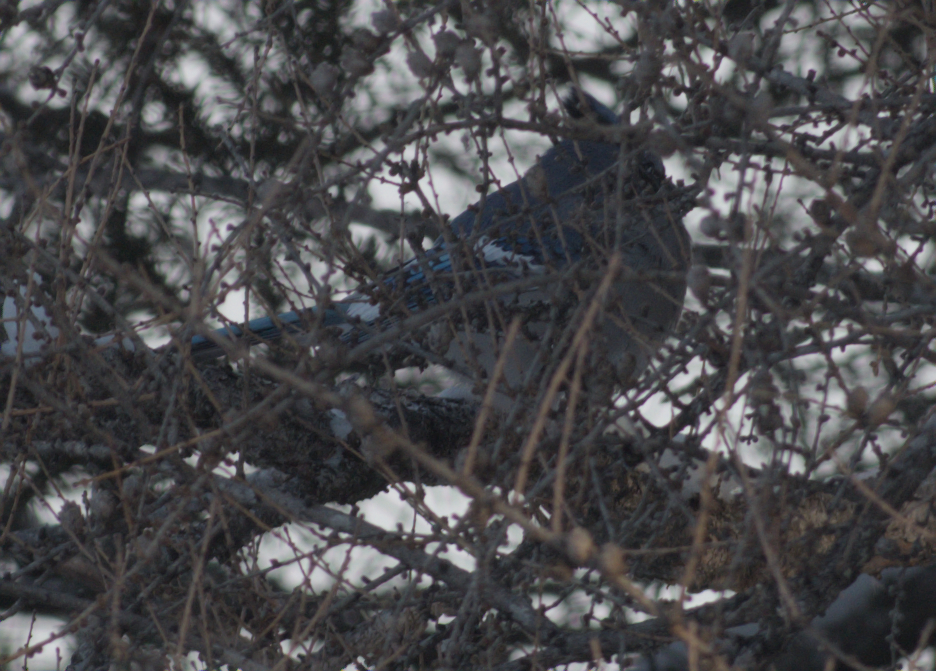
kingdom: Animalia
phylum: Chordata
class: Aves
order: Passeriformes
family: Corvidae
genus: Cyanocitta
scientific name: Cyanocitta cristata
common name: Blue jay
